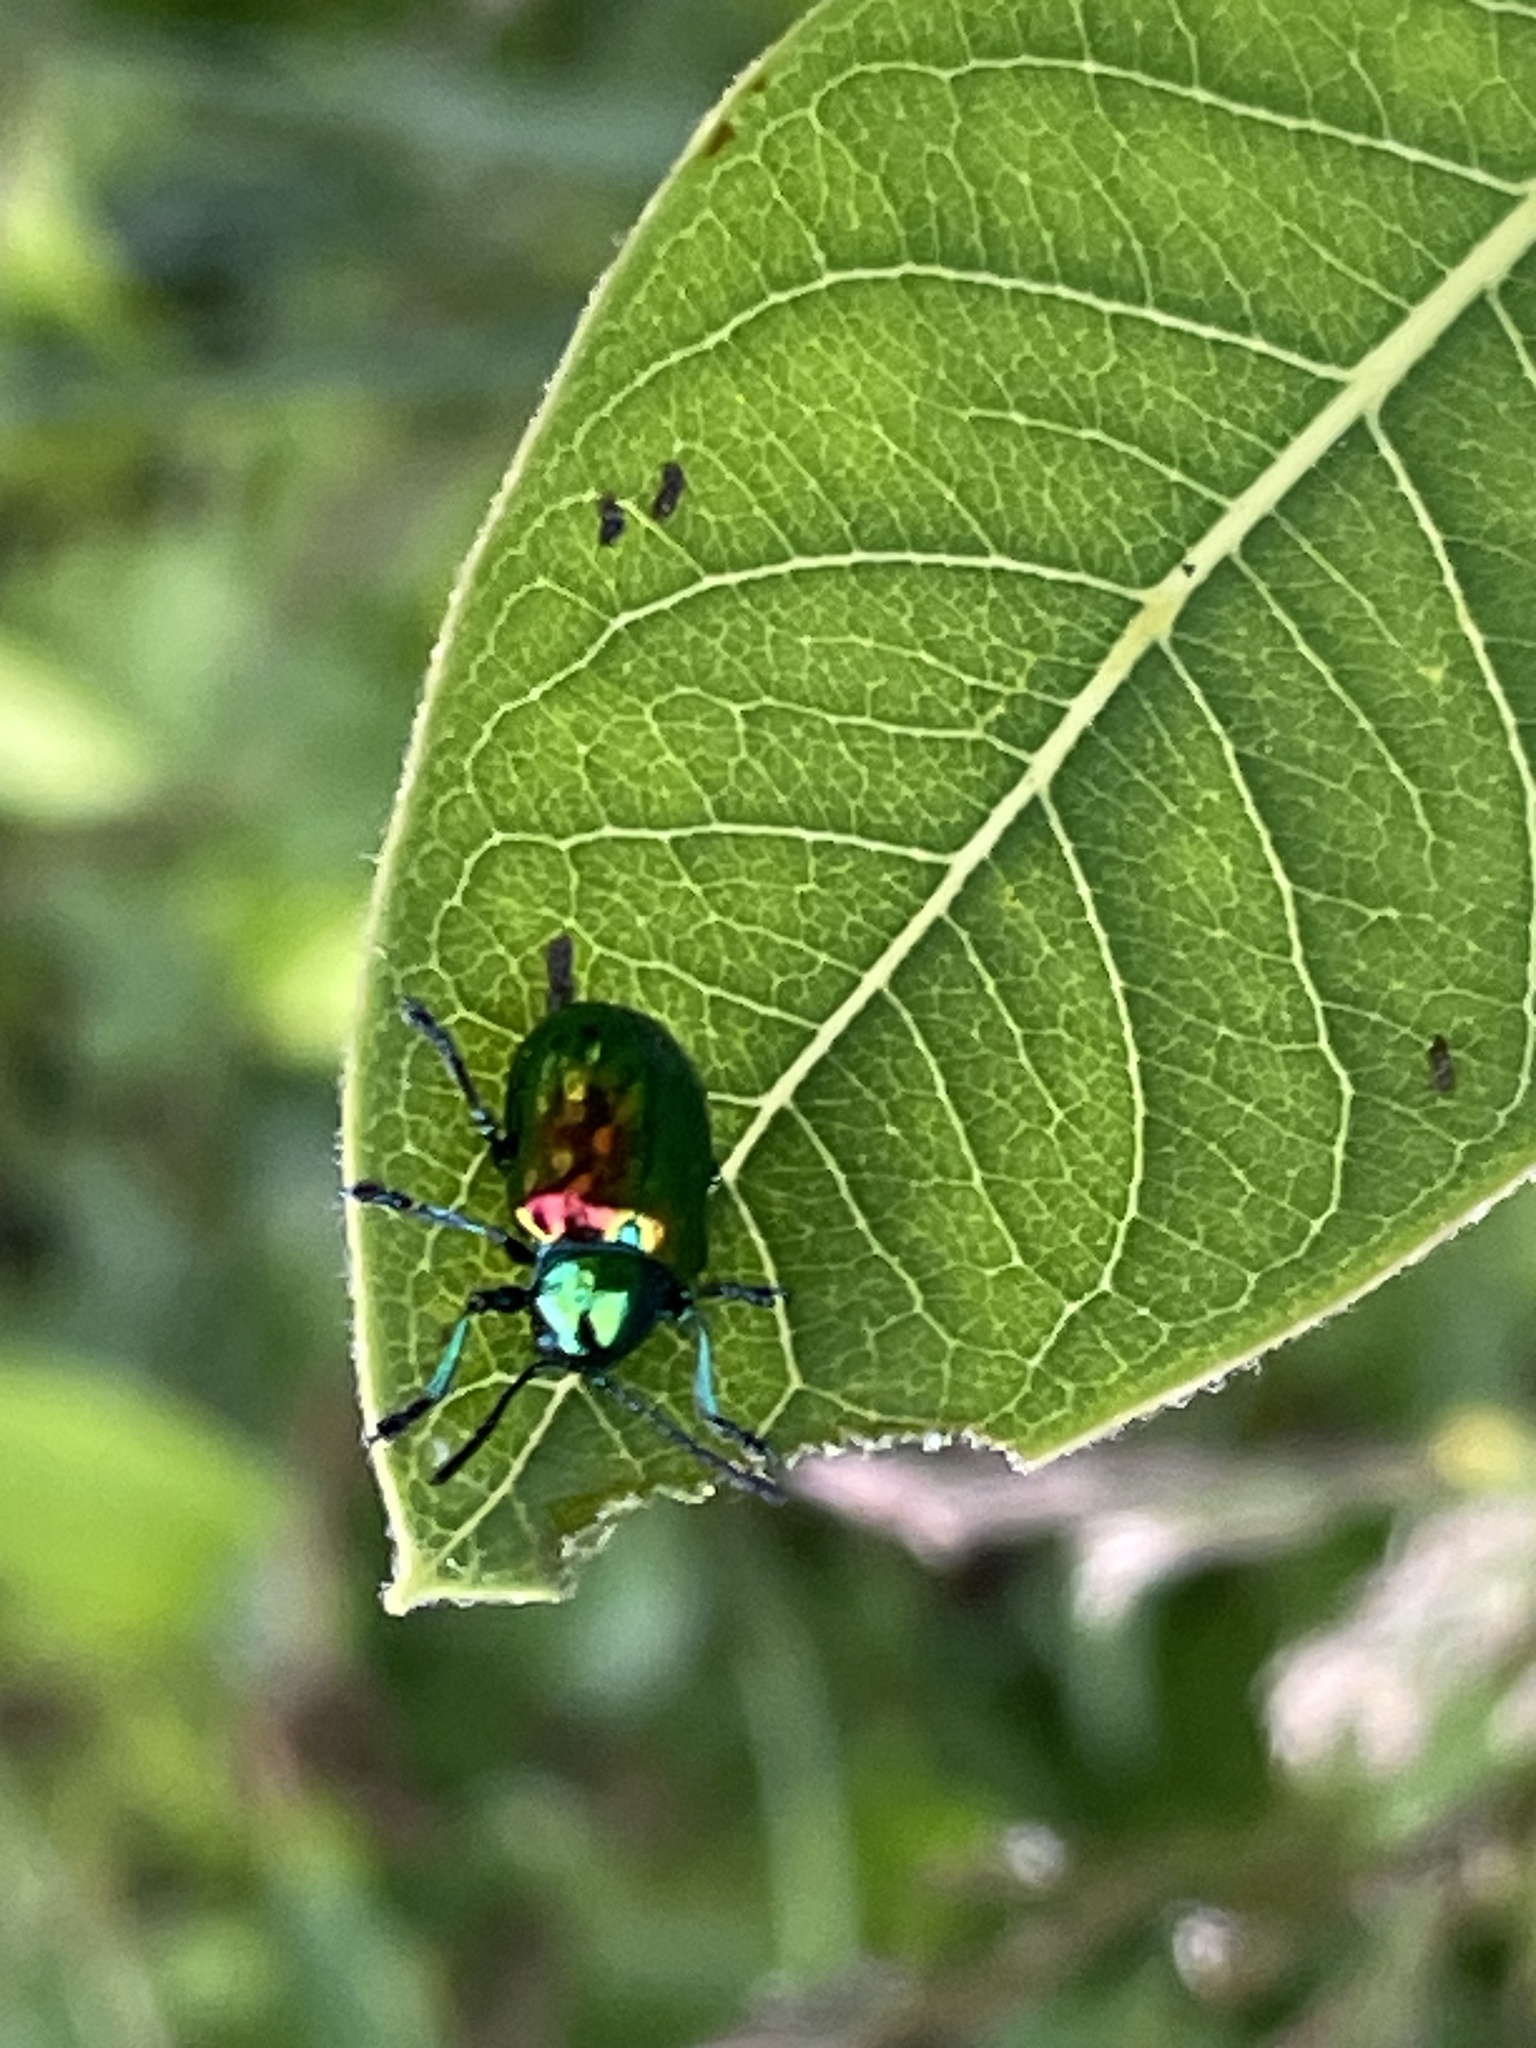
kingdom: Animalia
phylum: Arthropoda
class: Insecta
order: Coleoptera
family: Chrysomelidae
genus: Chrysochus
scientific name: Chrysochus auratus
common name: Dogbane leaf beetle
